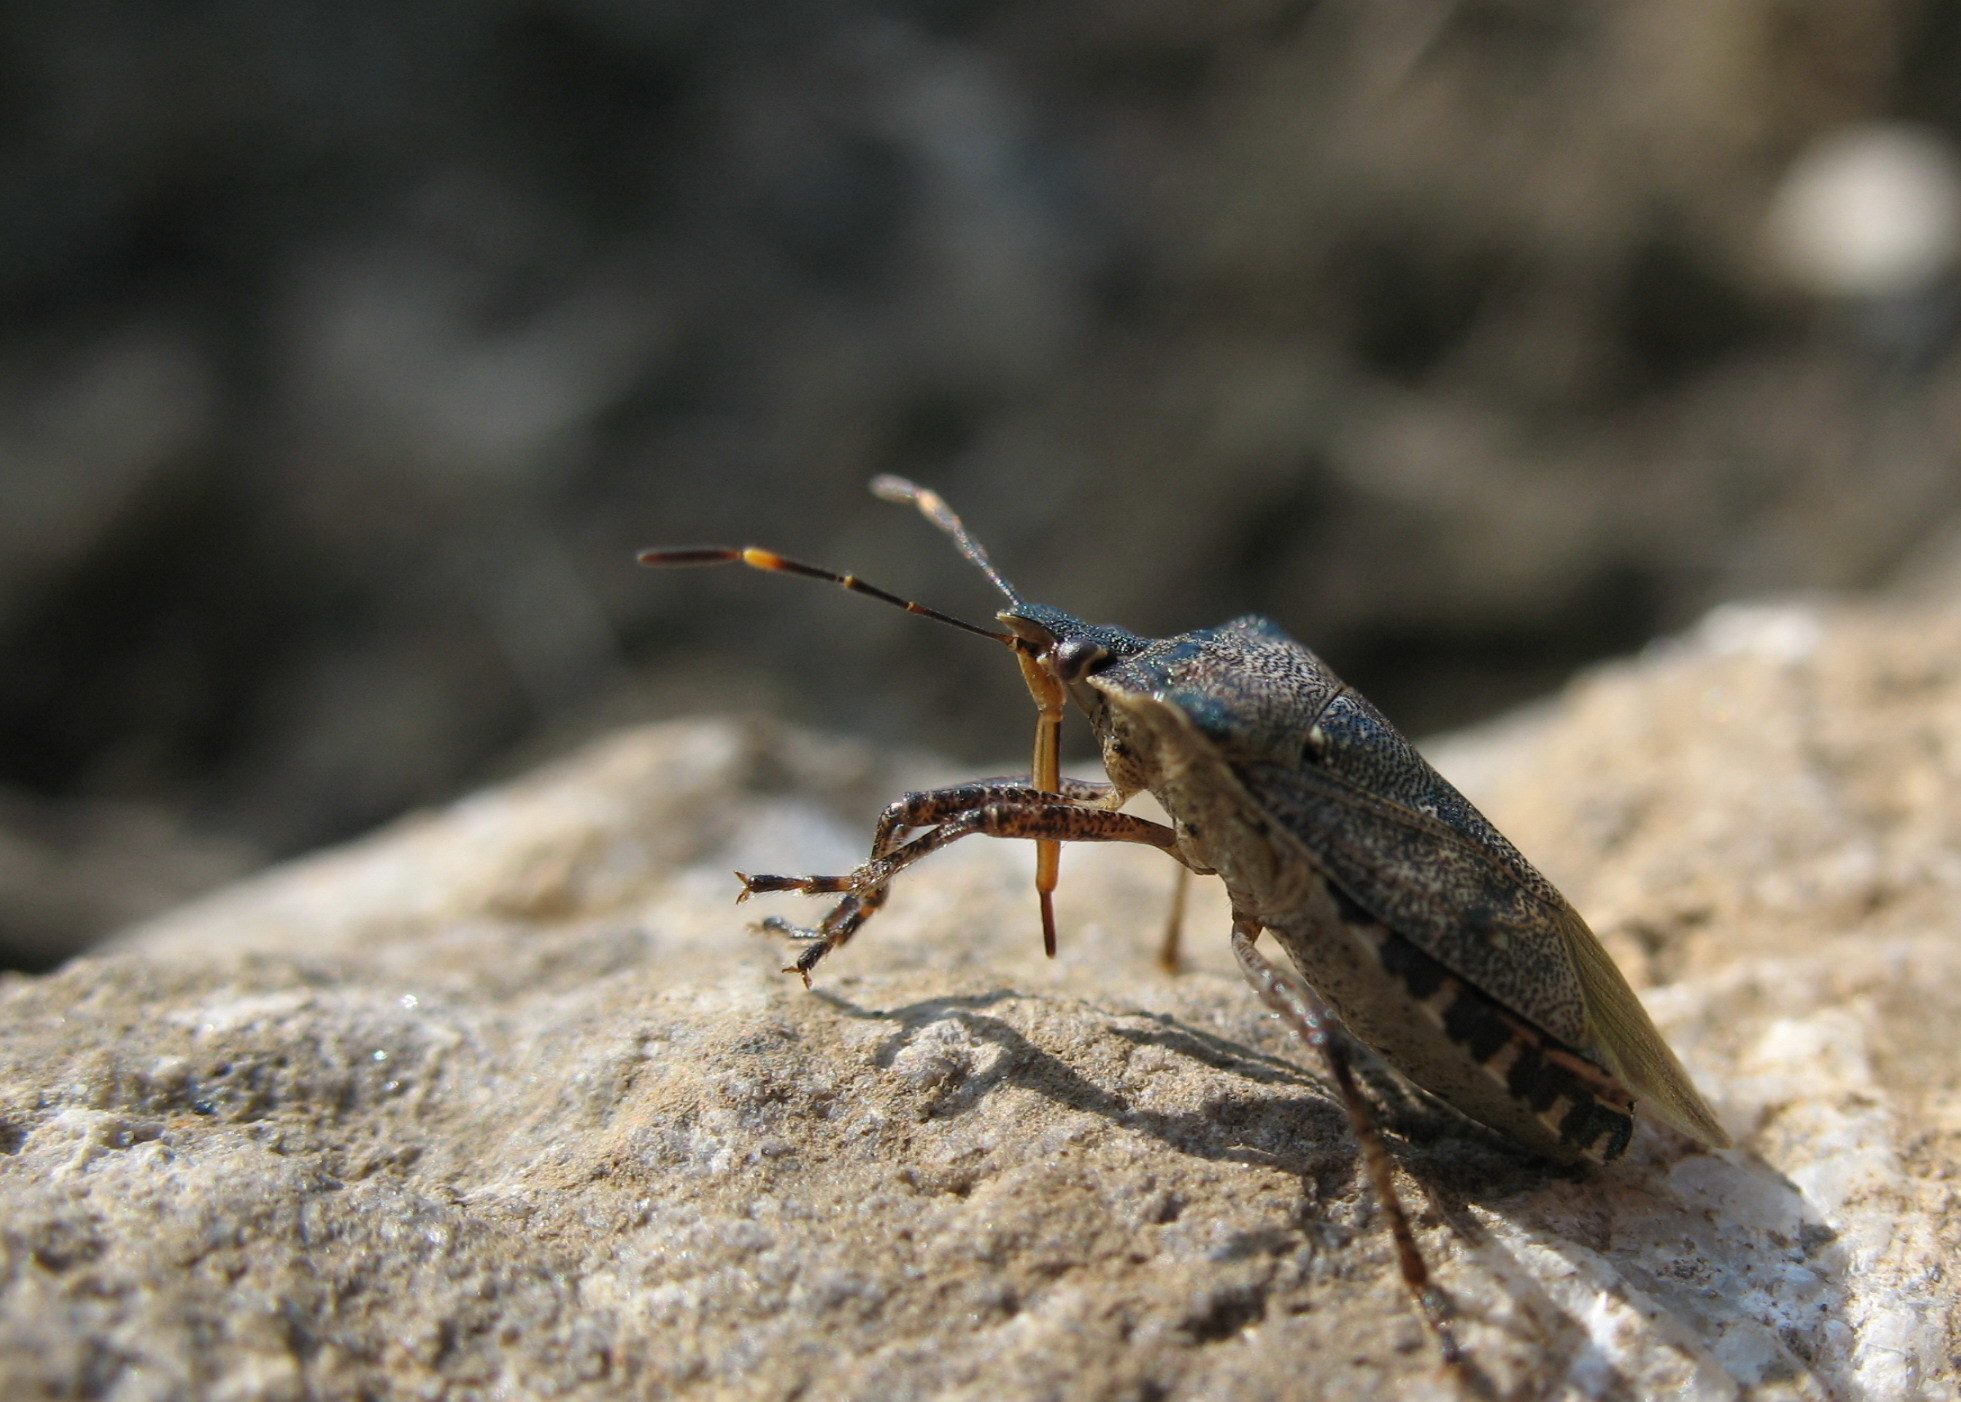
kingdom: Animalia
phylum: Arthropoda
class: Insecta
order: Hemiptera
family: Pentatomidae
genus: Troilus
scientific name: Troilus luridus
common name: Bronze shieldbug
